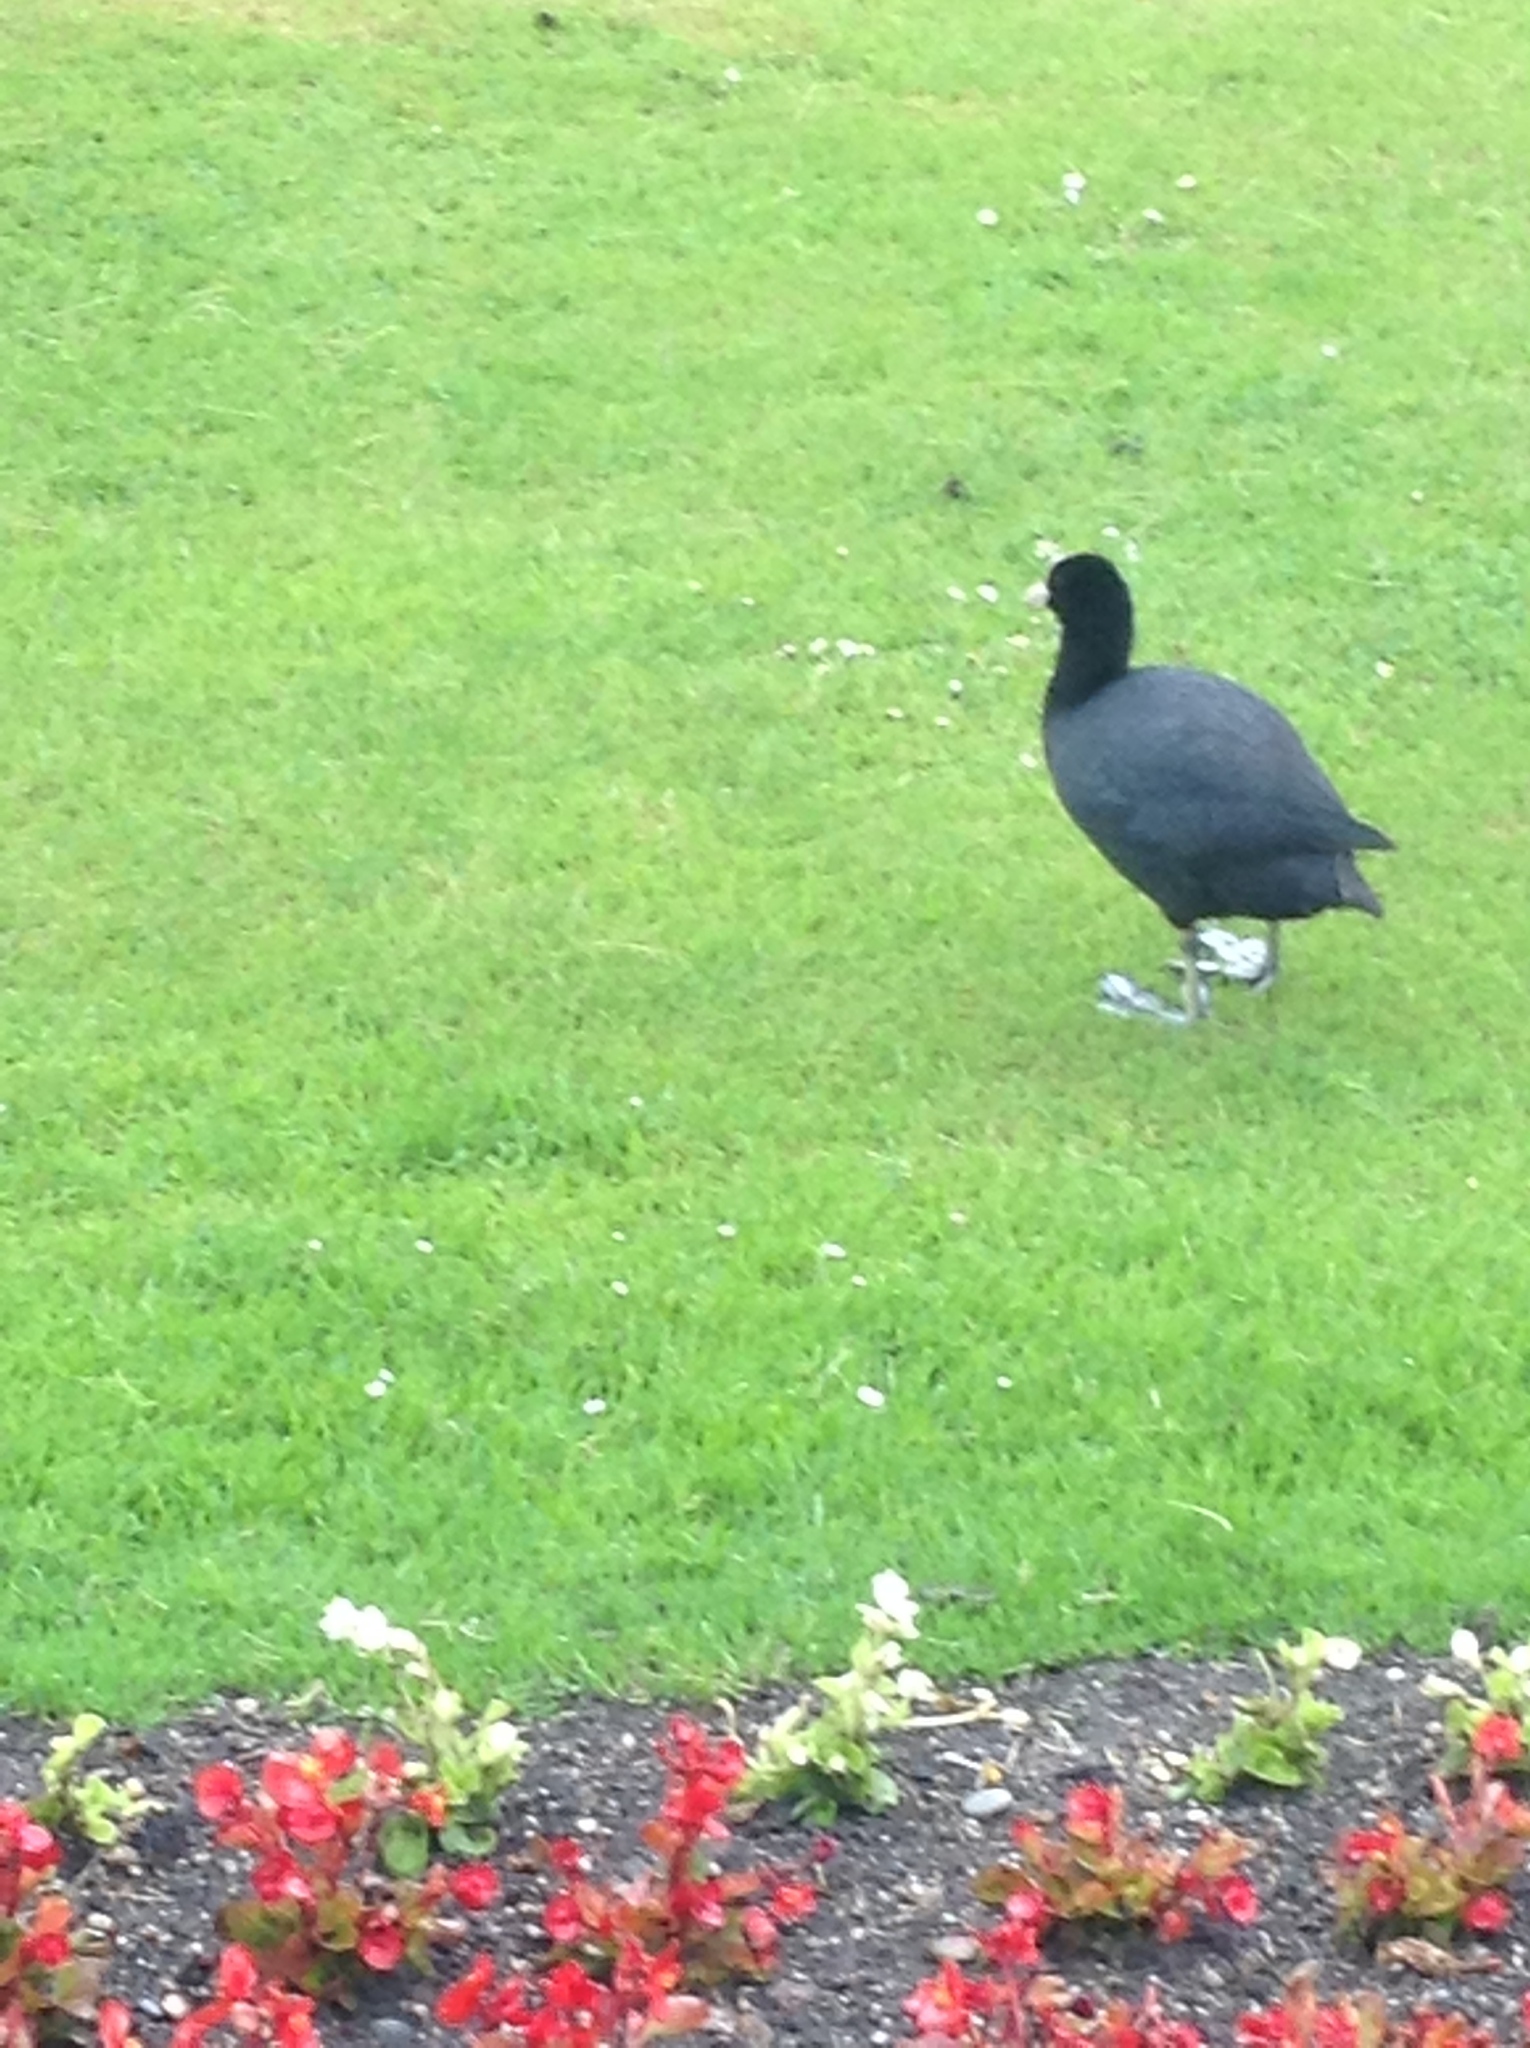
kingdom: Animalia
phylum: Chordata
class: Aves
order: Gruiformes
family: Rallidae
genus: Fulica
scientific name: Fulica atra
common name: Eurasian coot
